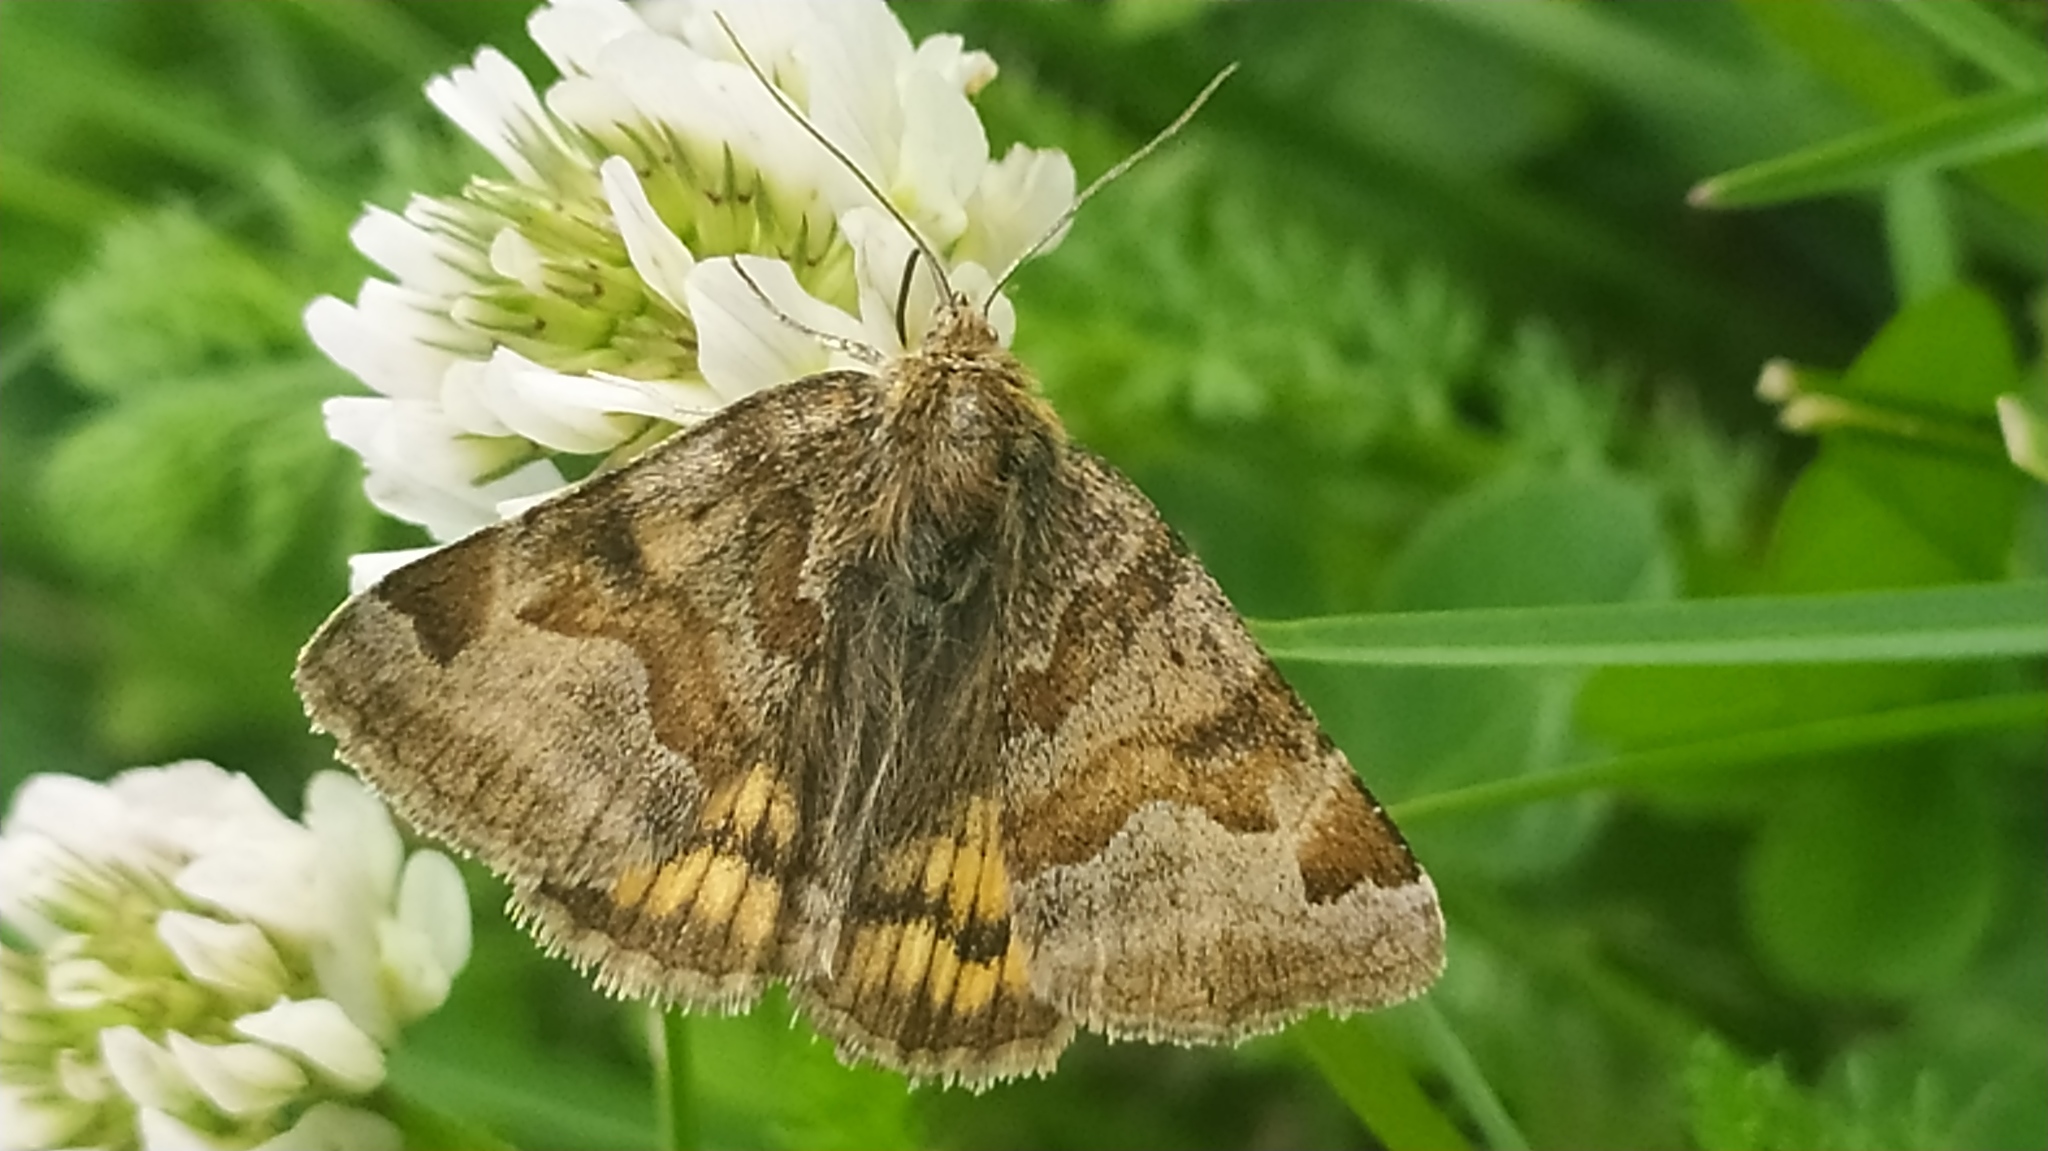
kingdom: Animalia
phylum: Arthropoda
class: Insecta
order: Lepidoptera
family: Erebidae
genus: Euclidia
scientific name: Euclidia glyphica
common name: Burnet companion
